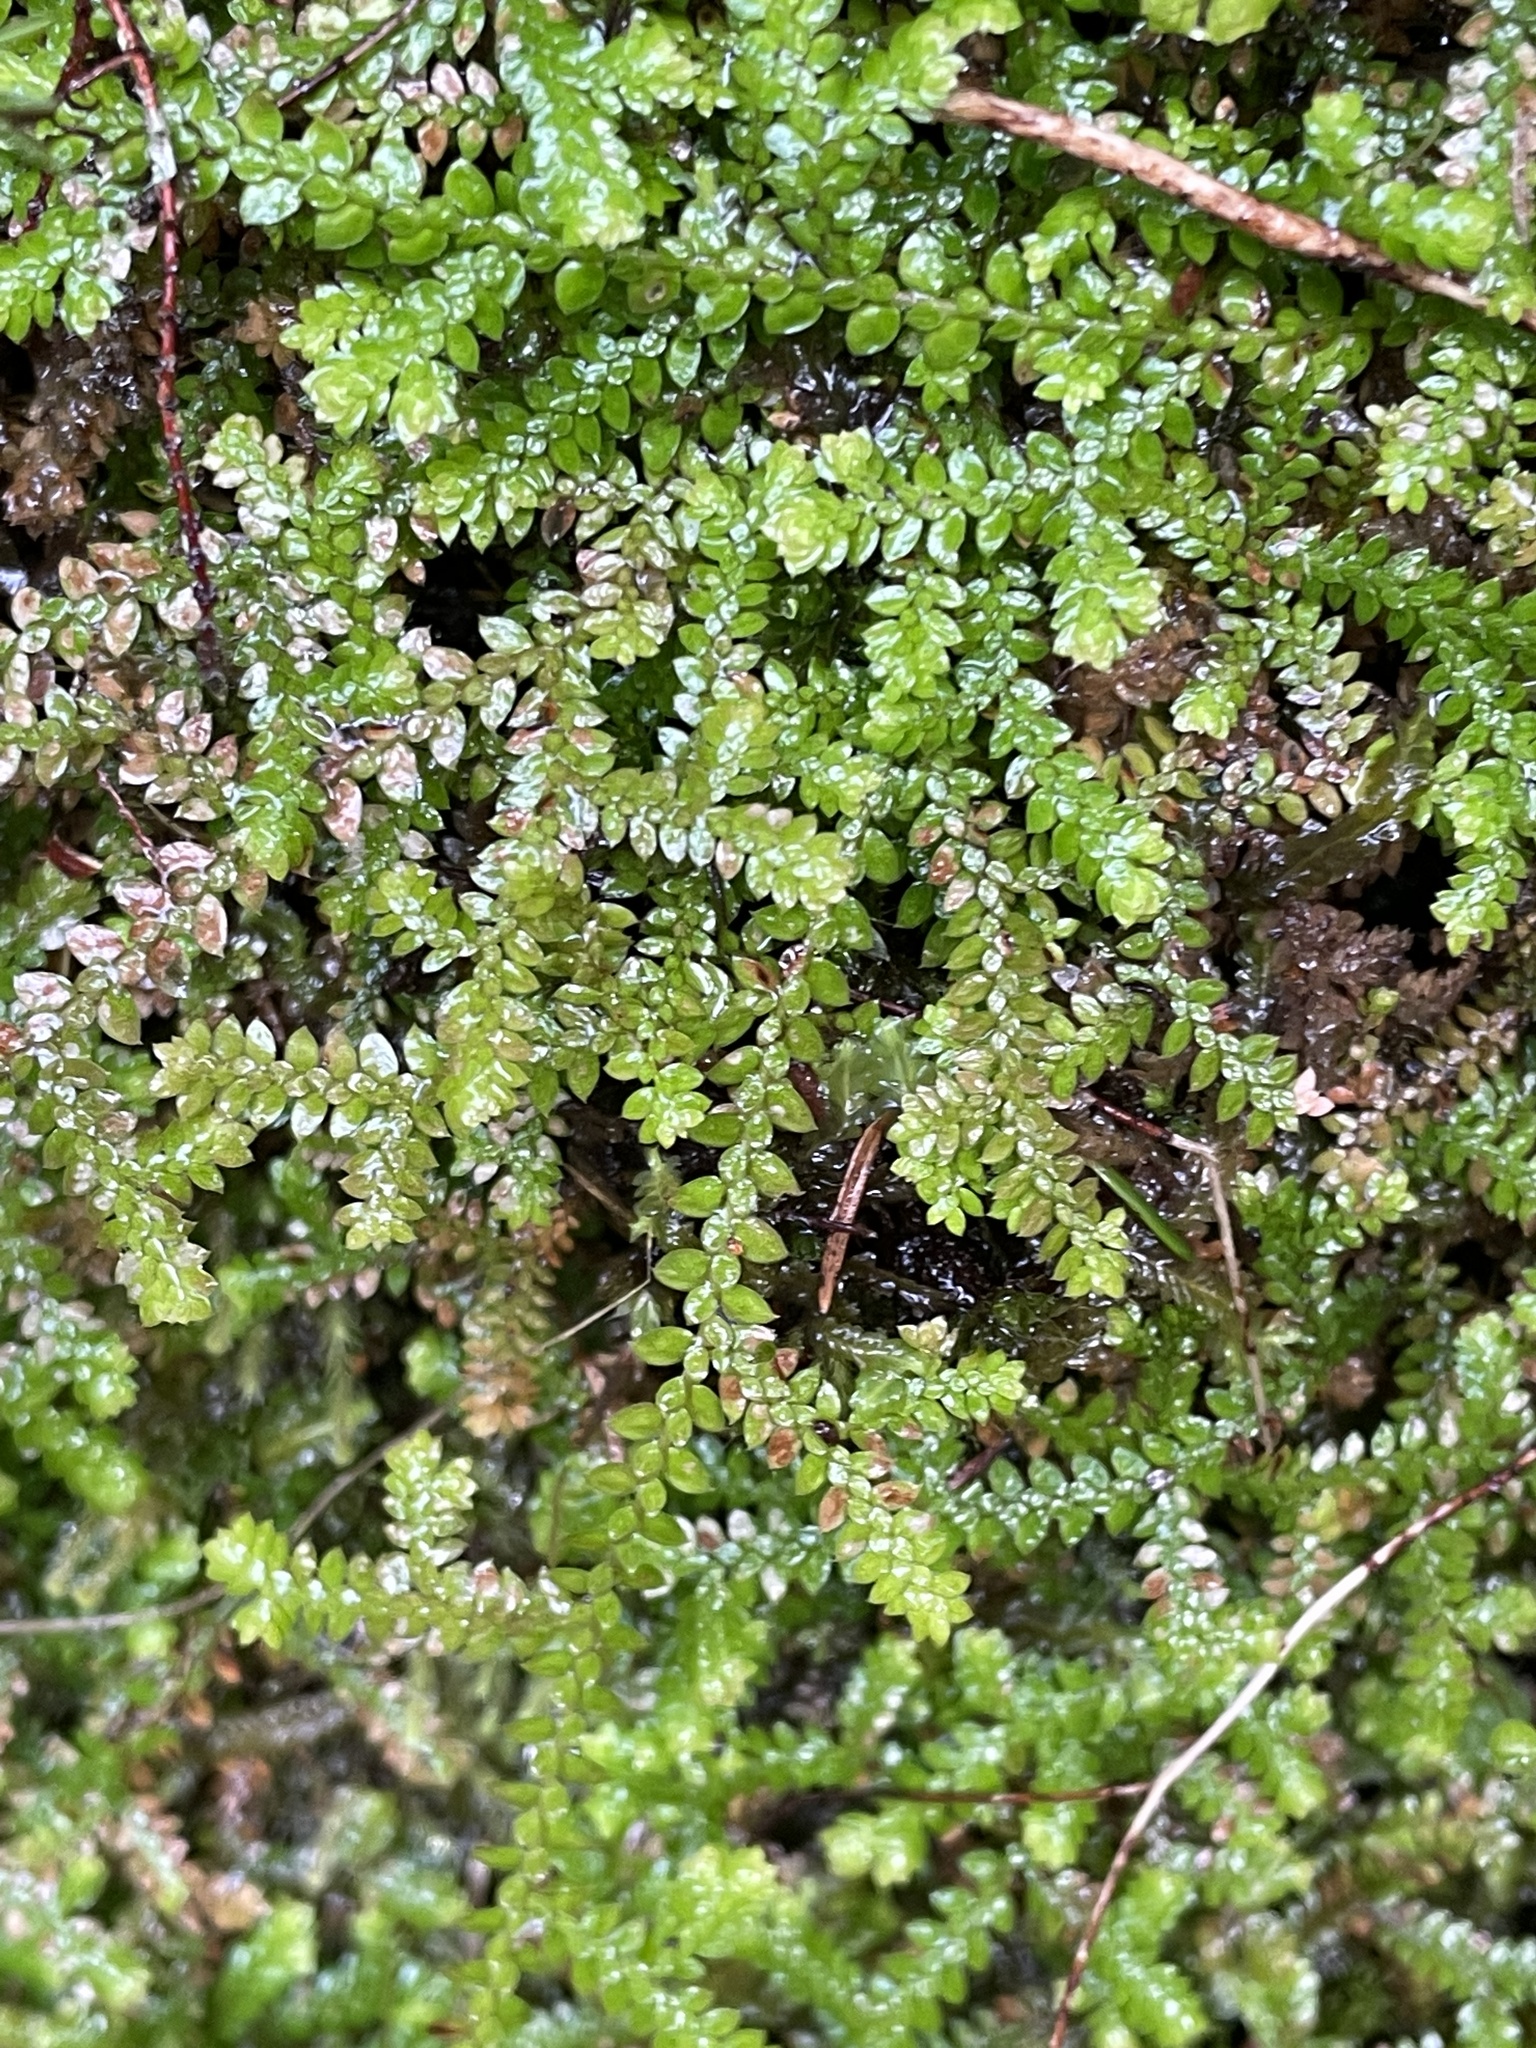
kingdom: Plantae
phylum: Tracheophyta
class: Lycopodiopsida
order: Selaginellales
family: Selaginellaceae
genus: Selaginella
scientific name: Selaginella denticulata
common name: Toothed-leaved clubmoss
